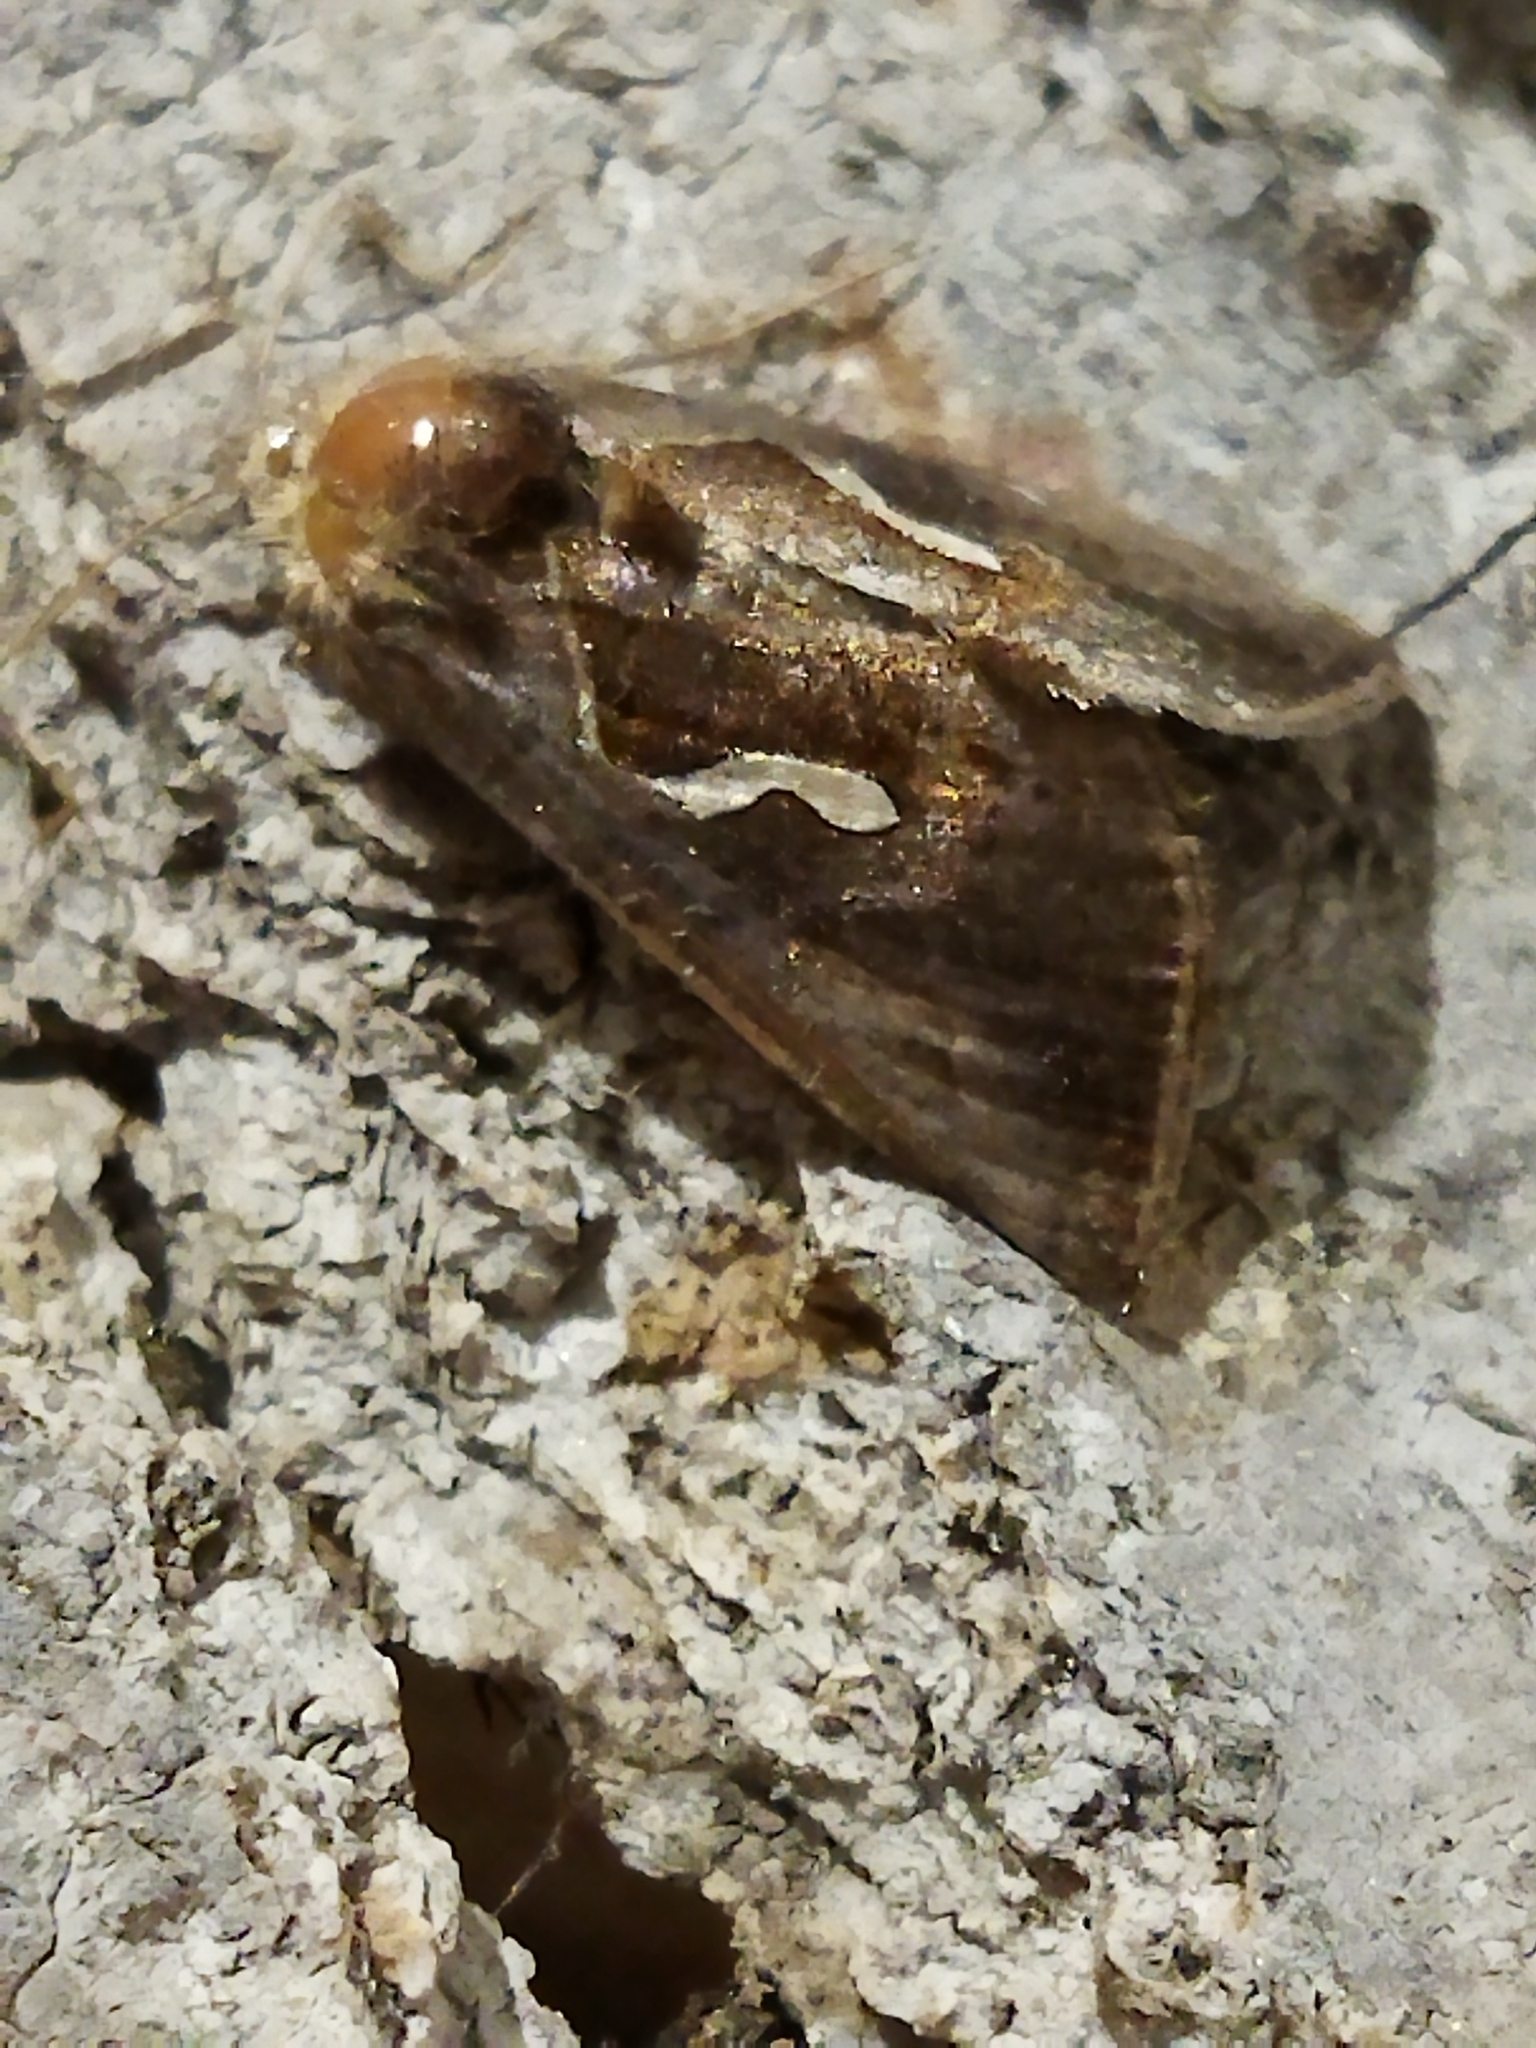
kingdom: Animalia
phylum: Arthropoda
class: Insecta
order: Lepidoptera
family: Noctuidae
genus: Macdunnoughia
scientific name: Macdunnoughia confusa
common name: Dewick's plusia
